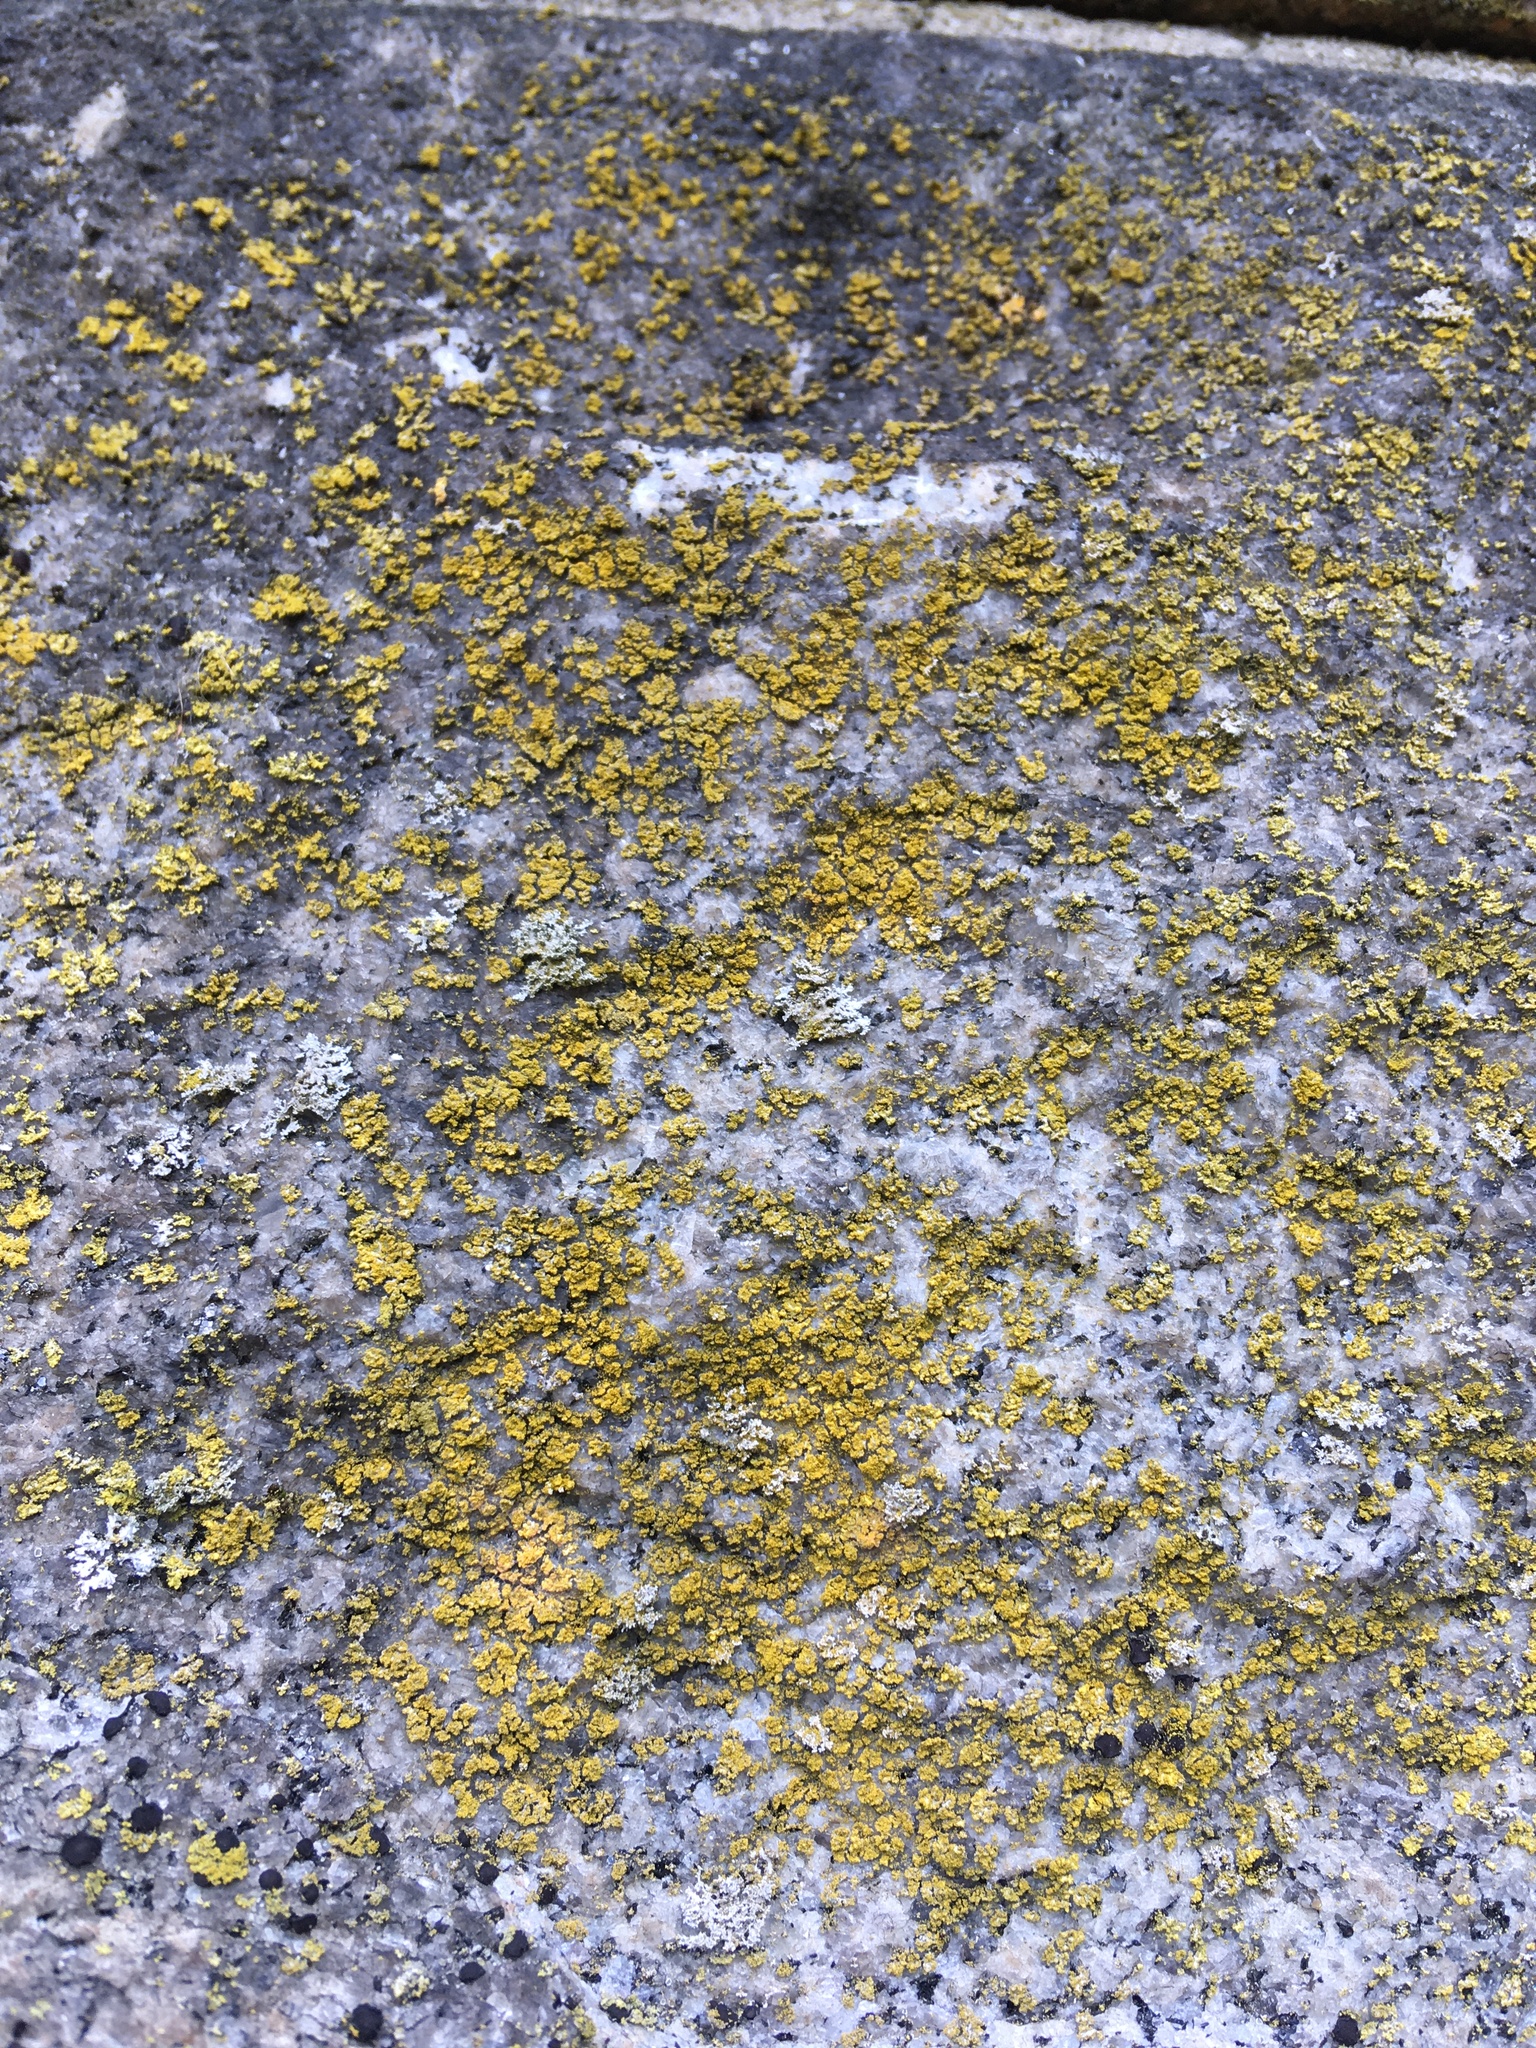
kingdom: Fungi
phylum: Ascomycota
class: Candelariomycetes
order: Candelariales
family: Candelariaceae
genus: Candelaria
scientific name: Candelaria concolor
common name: Candleflame lichen
